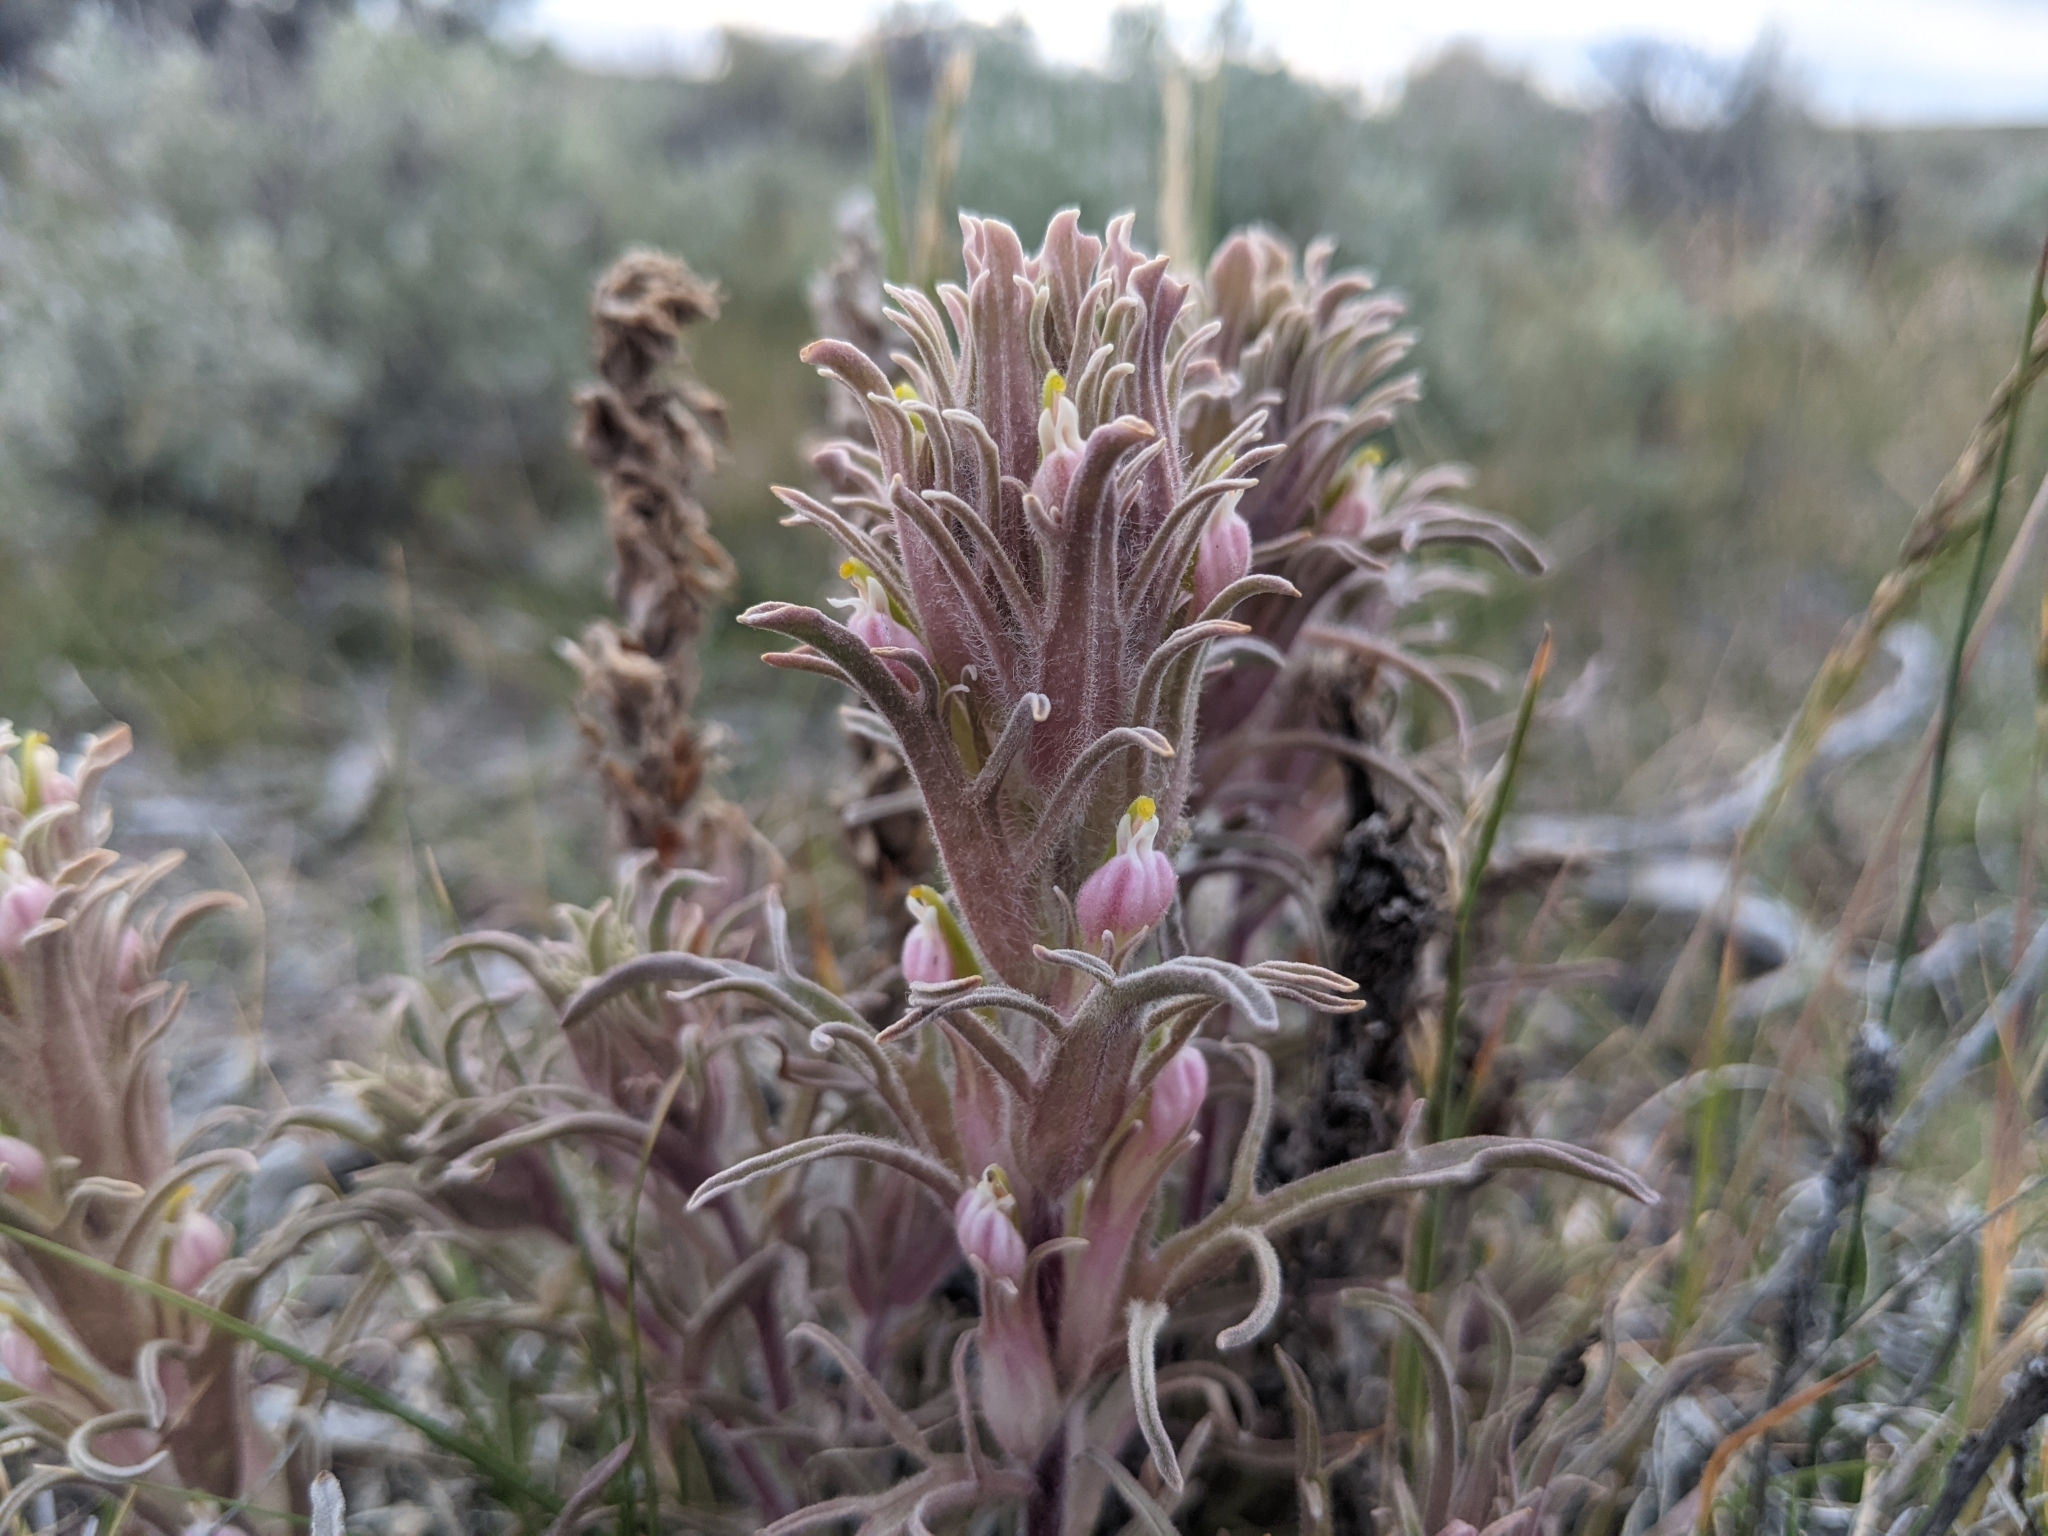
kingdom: Plantae
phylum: Tracheophyta
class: Magnoliopsida
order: Lamiales
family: Orobanchaceae
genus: Castilleja
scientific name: Castilleja pilosa
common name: Hairy paintbrush
